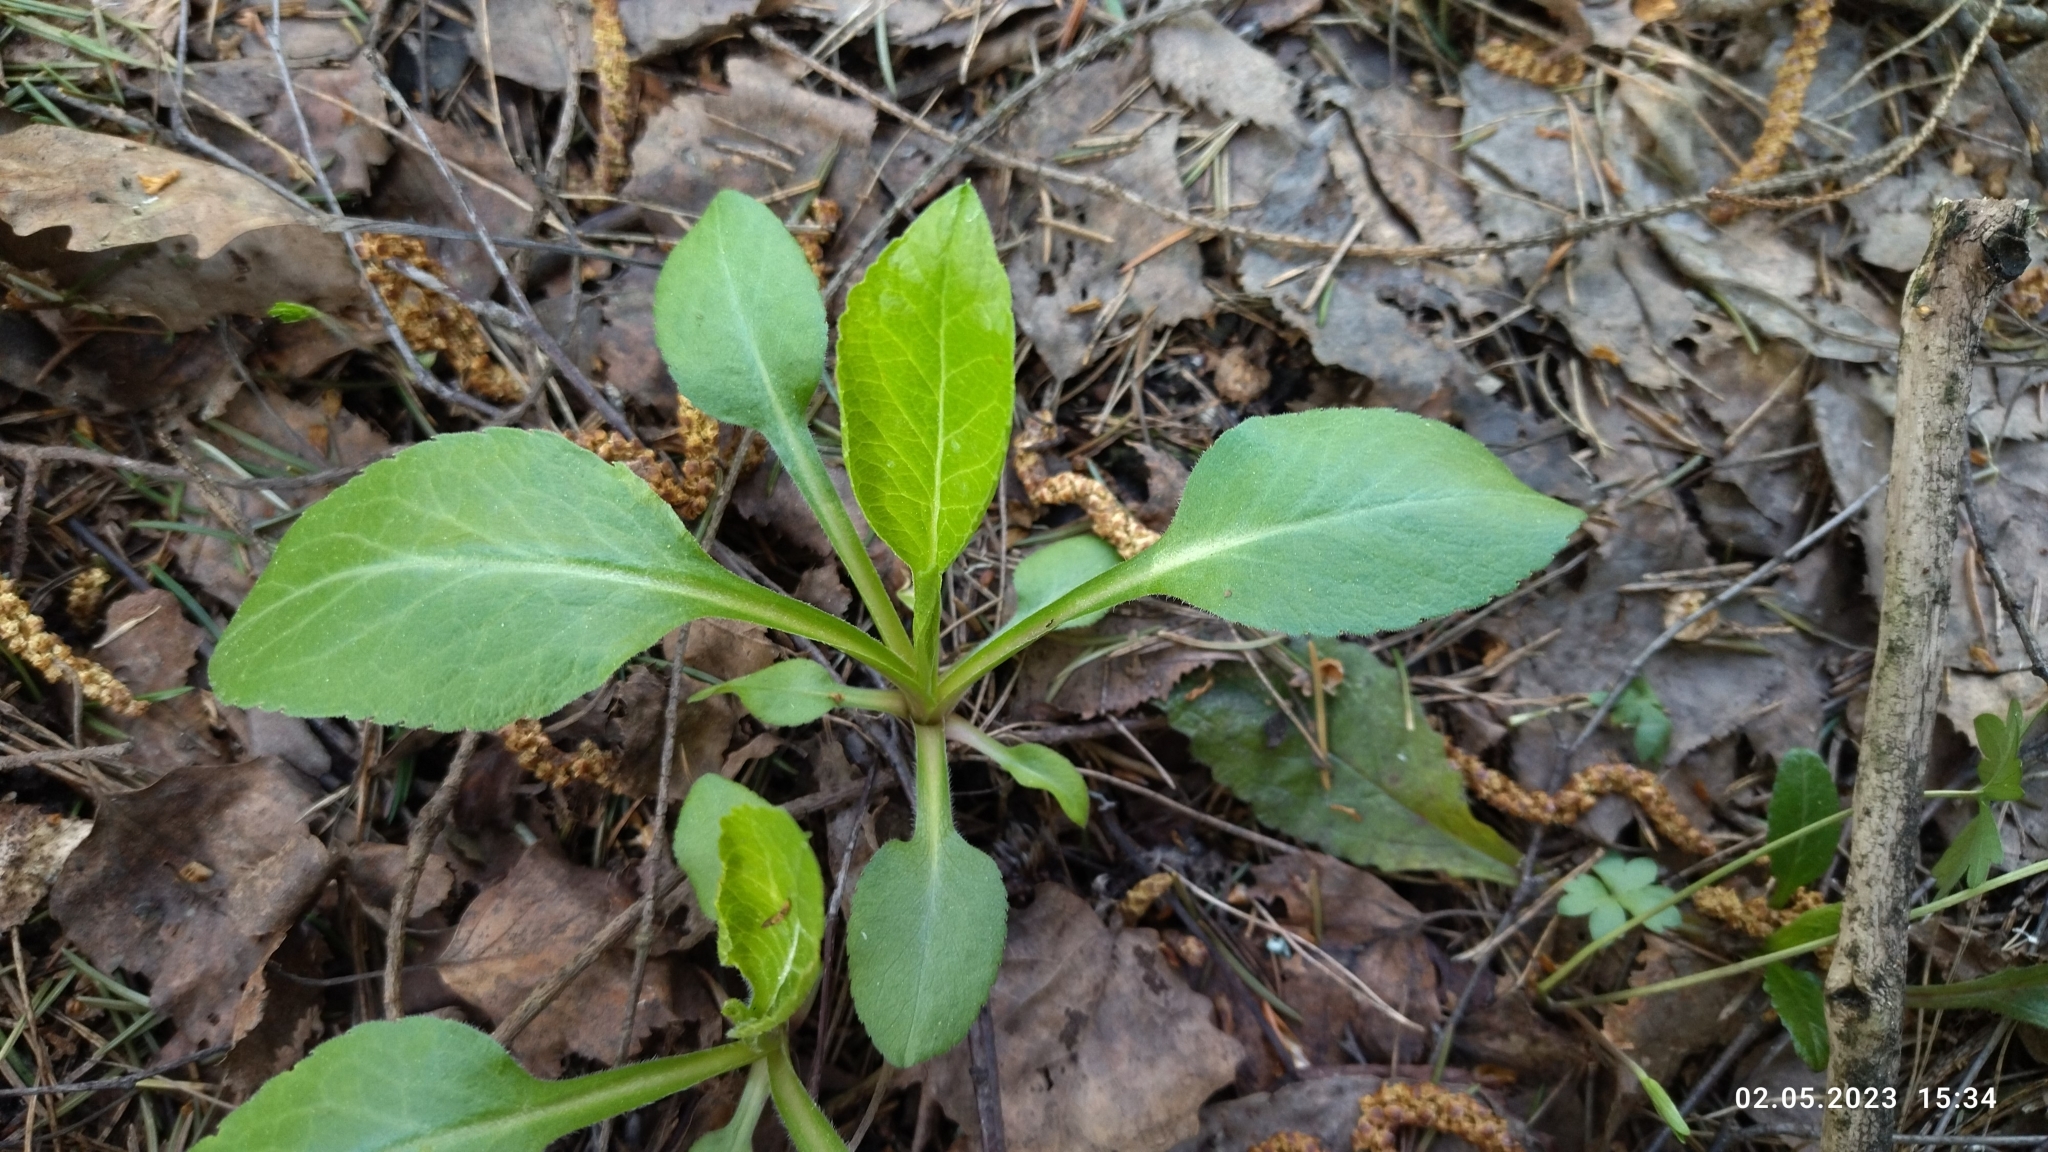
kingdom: Plantae
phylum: Tracheophyta
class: Magnoliopsida
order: Asterales
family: Asteraceae
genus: Solidago
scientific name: Solidago virgaurea
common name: Goldenrod
